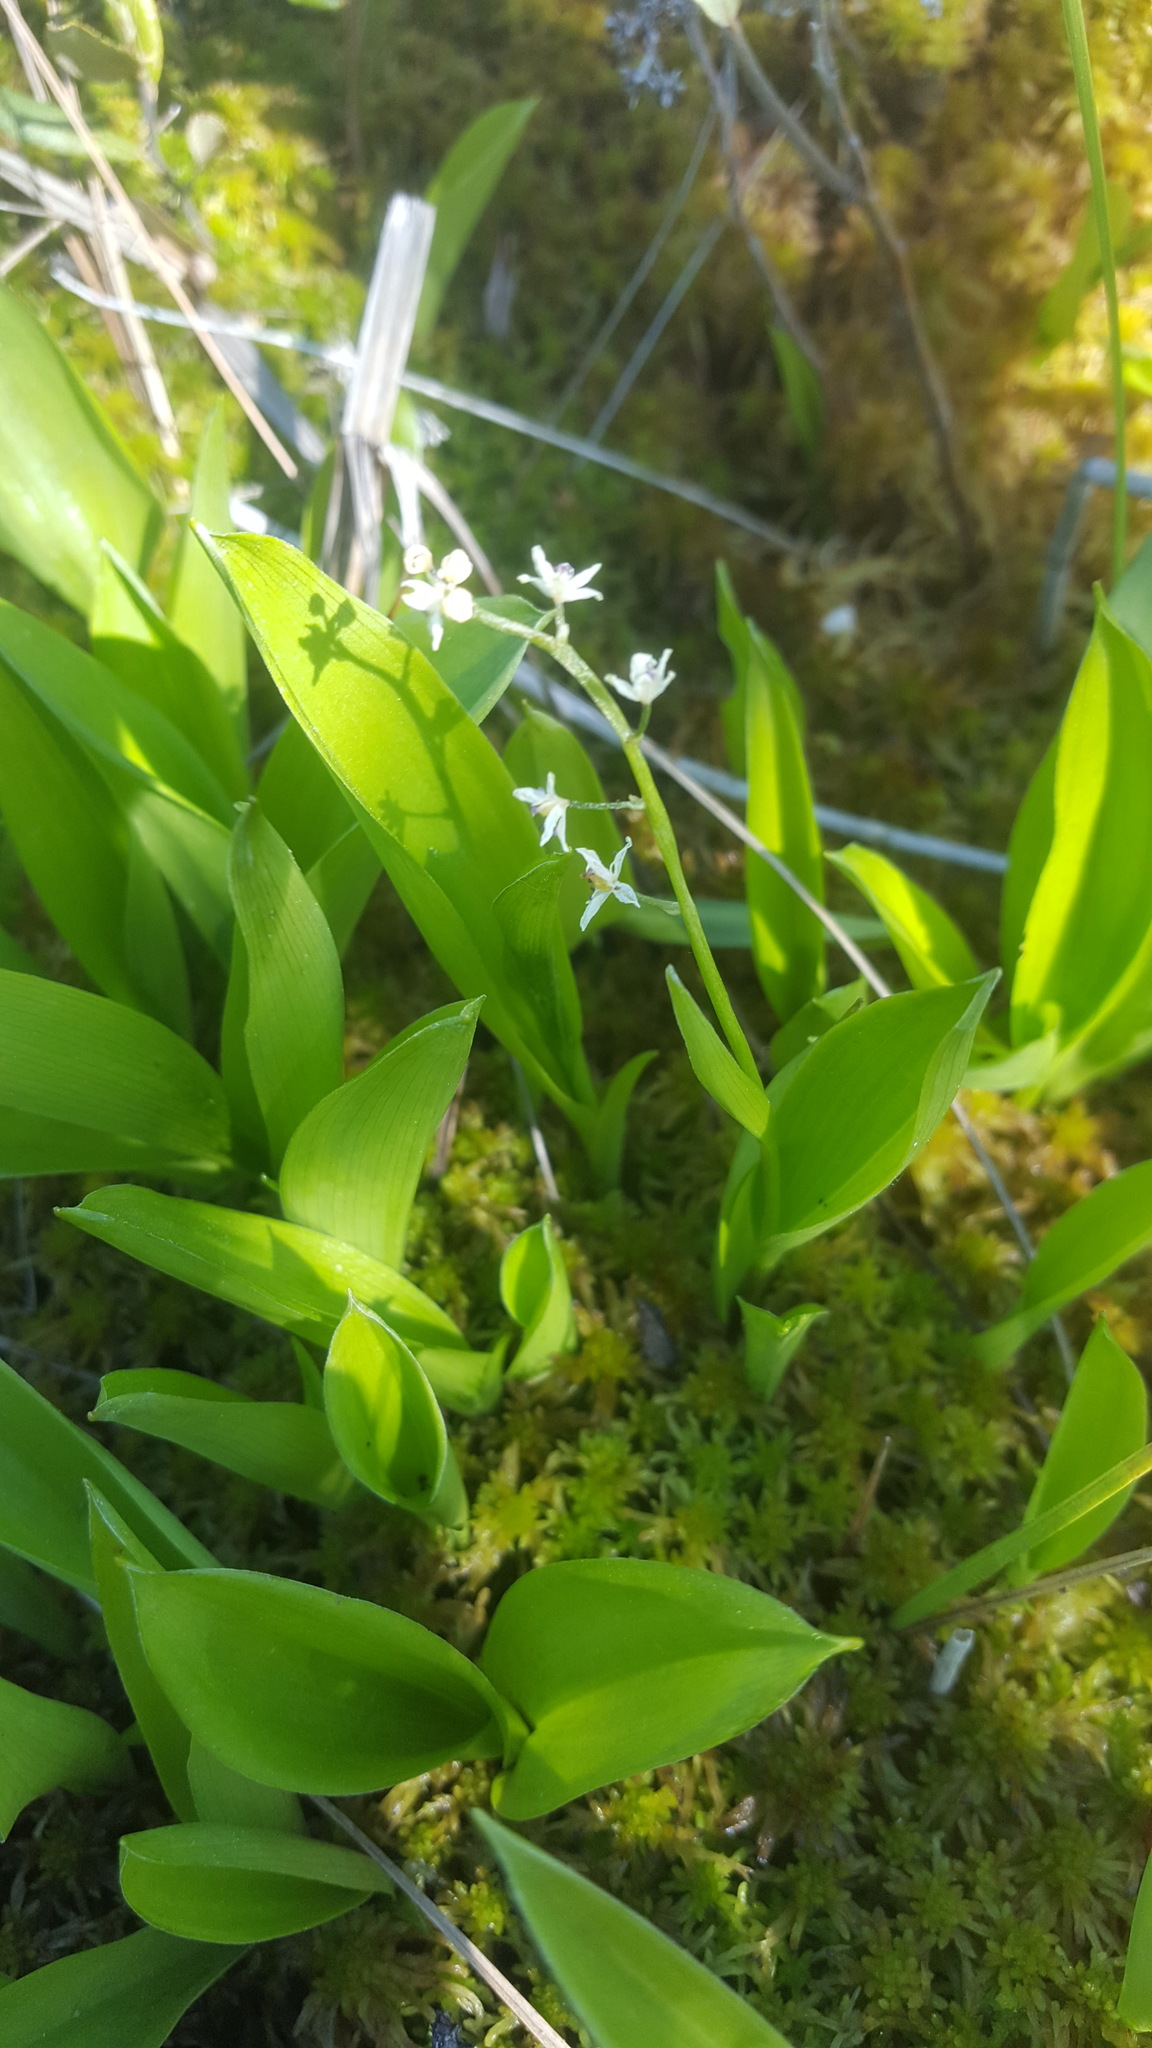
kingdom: Plantae
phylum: Tracheophyta
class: Liliopsida
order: Asparagales
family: Asparagaceae
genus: Maianthemum
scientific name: Maianthemum trifolium
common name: Swamp false solomon's seal
